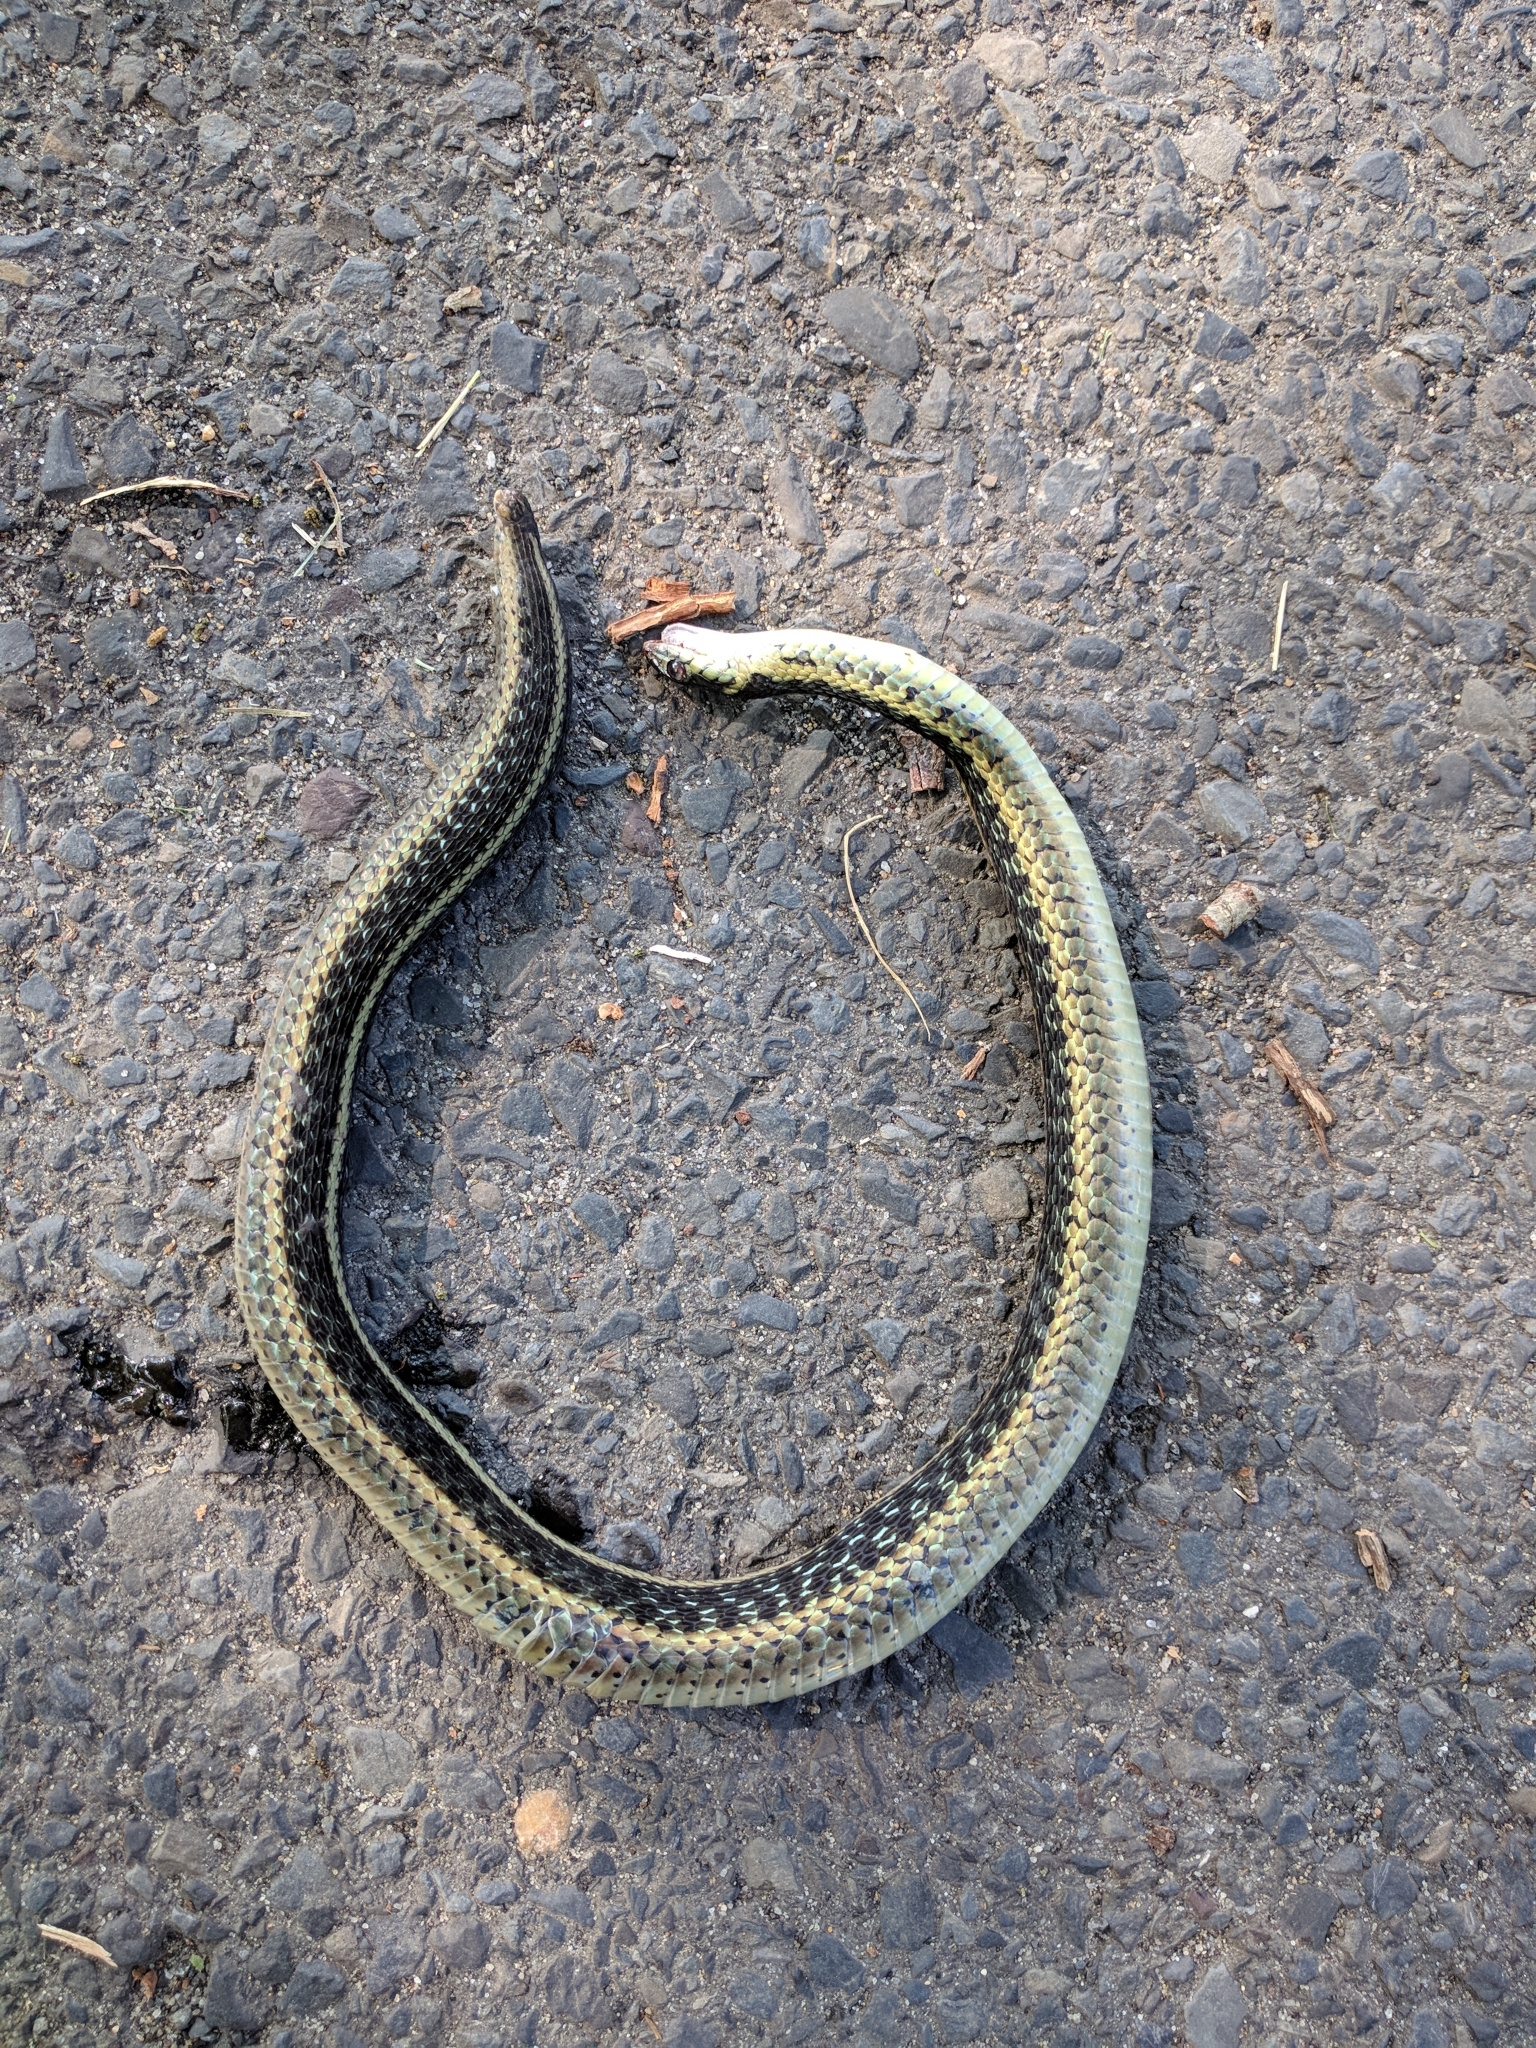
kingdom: Animalia
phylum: Chordata
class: Squamata
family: Colubridae
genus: Thamnophis
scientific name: Thamnophis sirtalis
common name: Common garter snake
